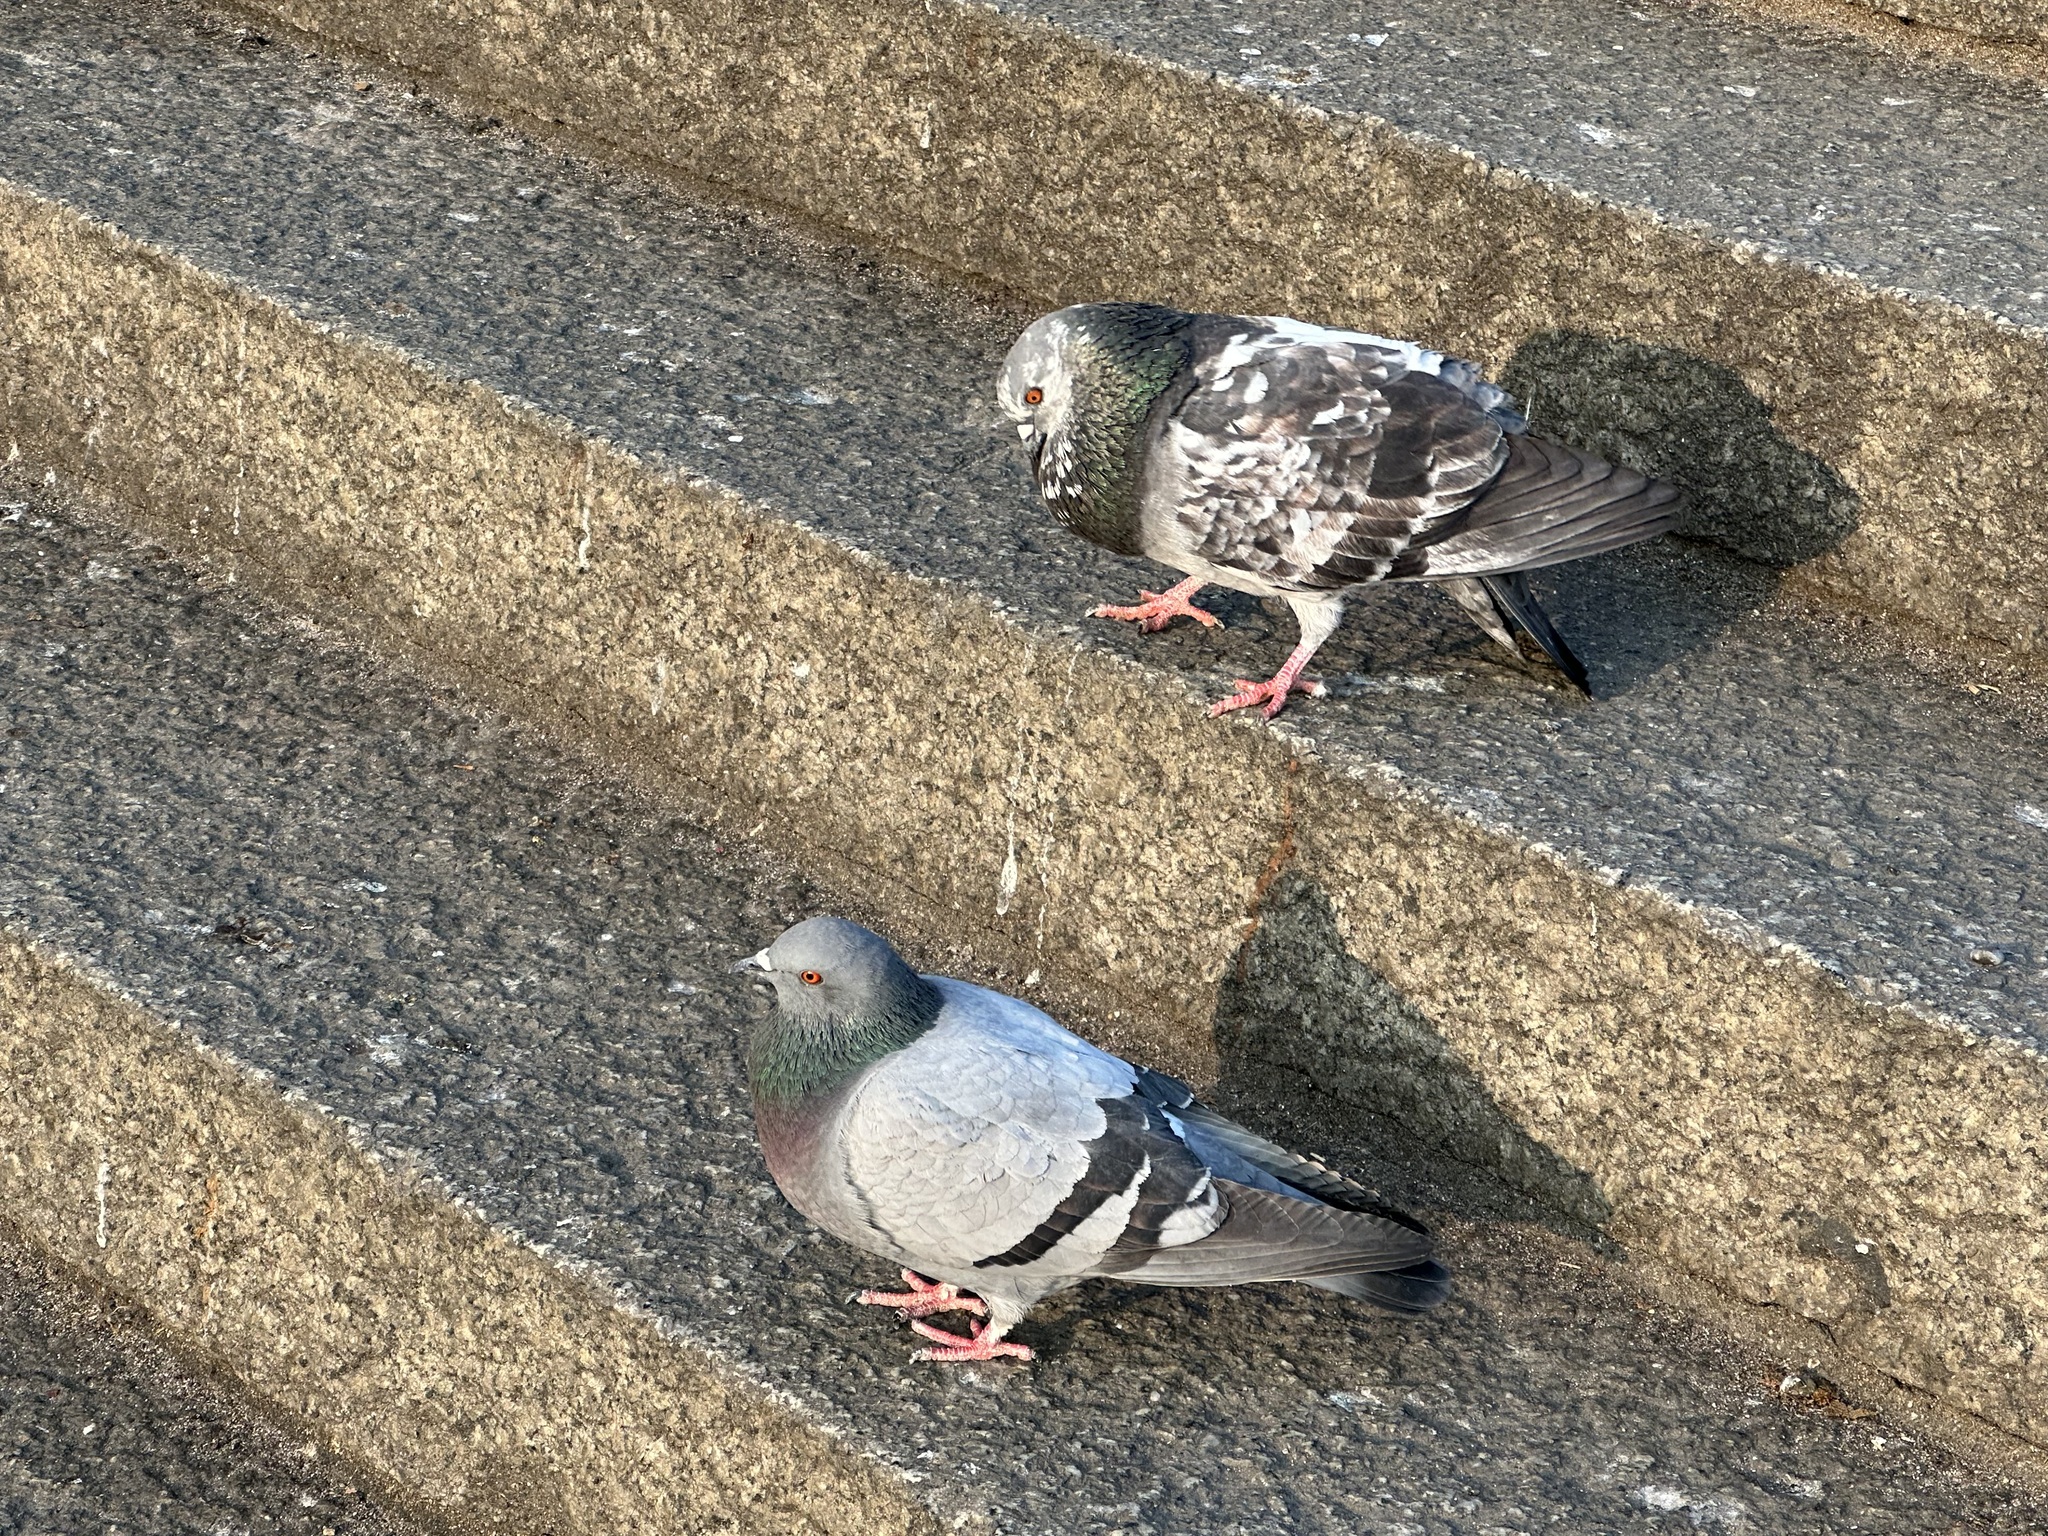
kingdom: Animalia
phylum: Chordata
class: Aves
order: Columbiformes
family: Columbidae
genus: Columba
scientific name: Columba livia
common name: Rock pigeon
